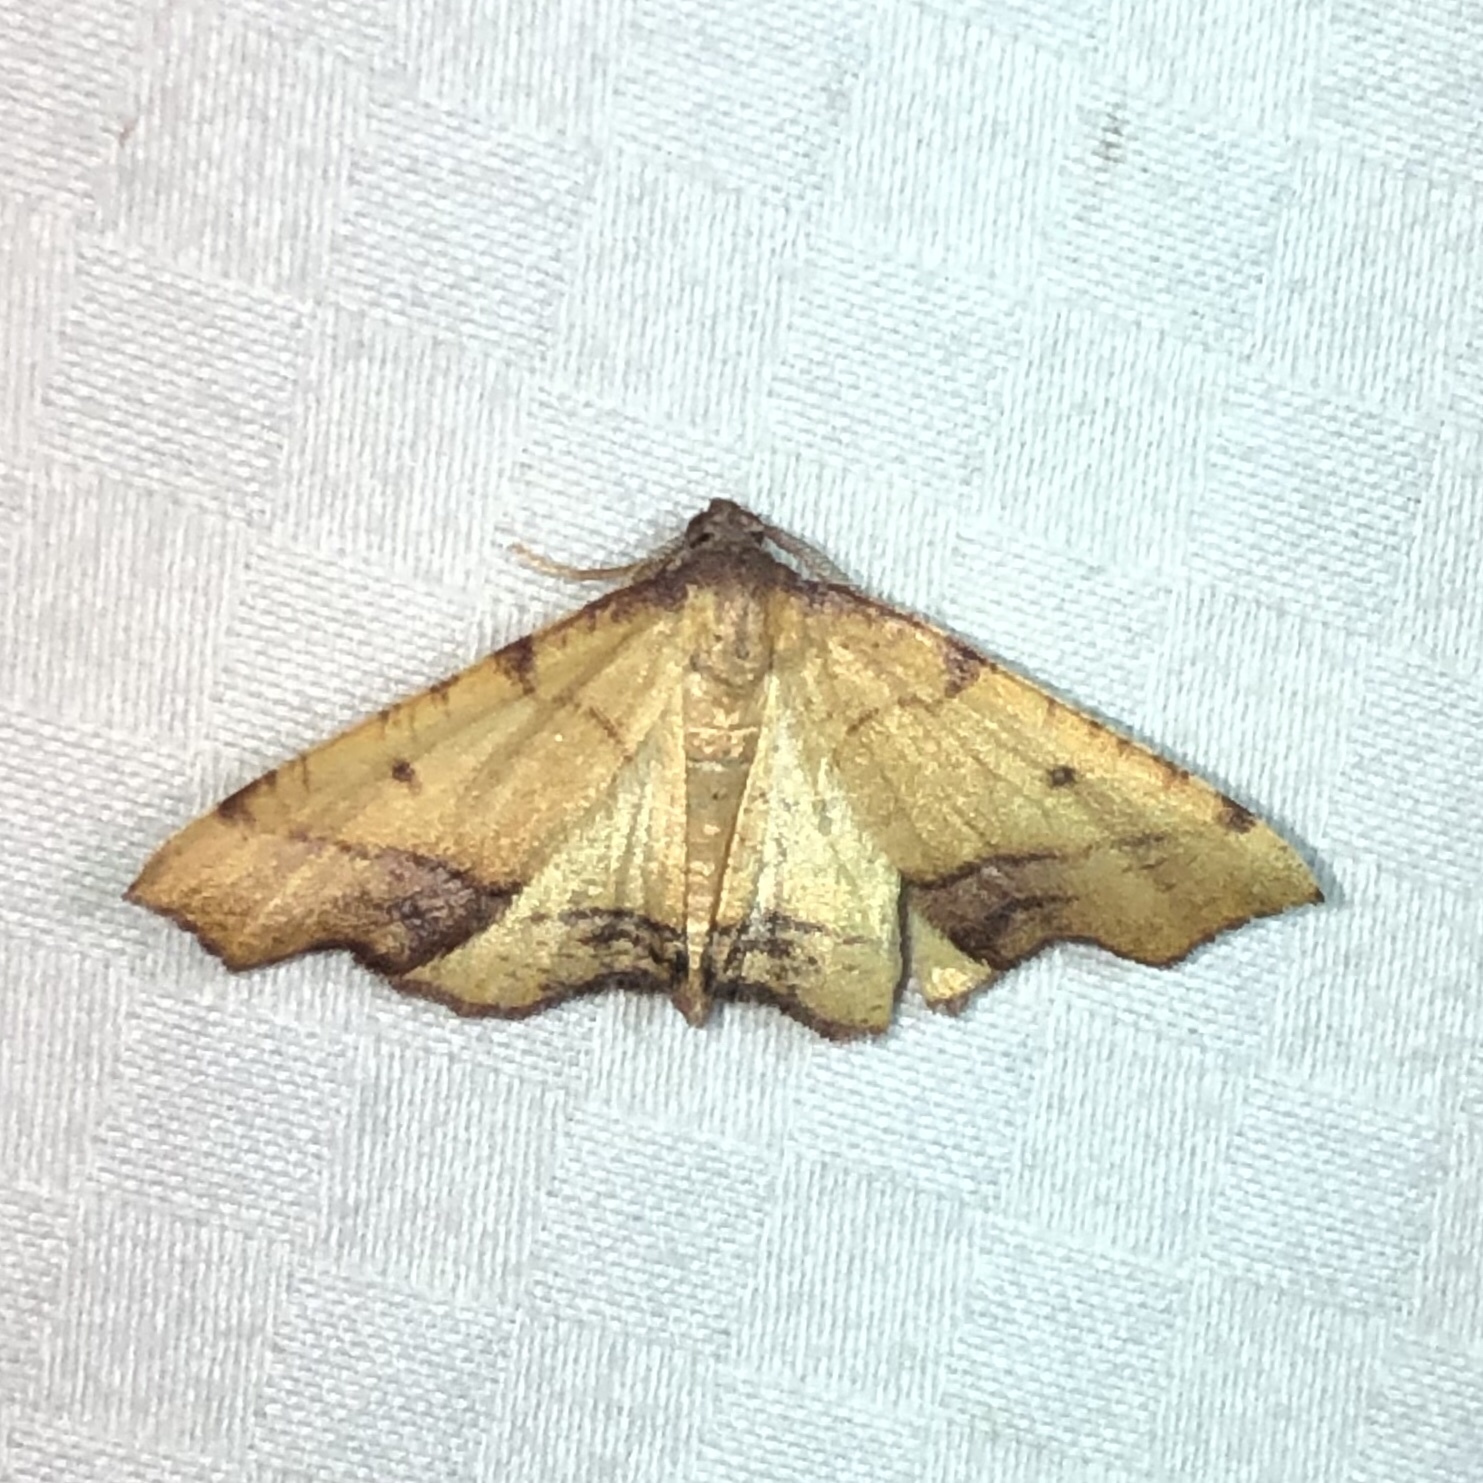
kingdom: Animalia
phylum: Arthropoda
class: Insecta
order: Lepidoptera
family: Geometridae
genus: Plagodis
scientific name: Plagodis fervidaria
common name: Fervid plagodis
